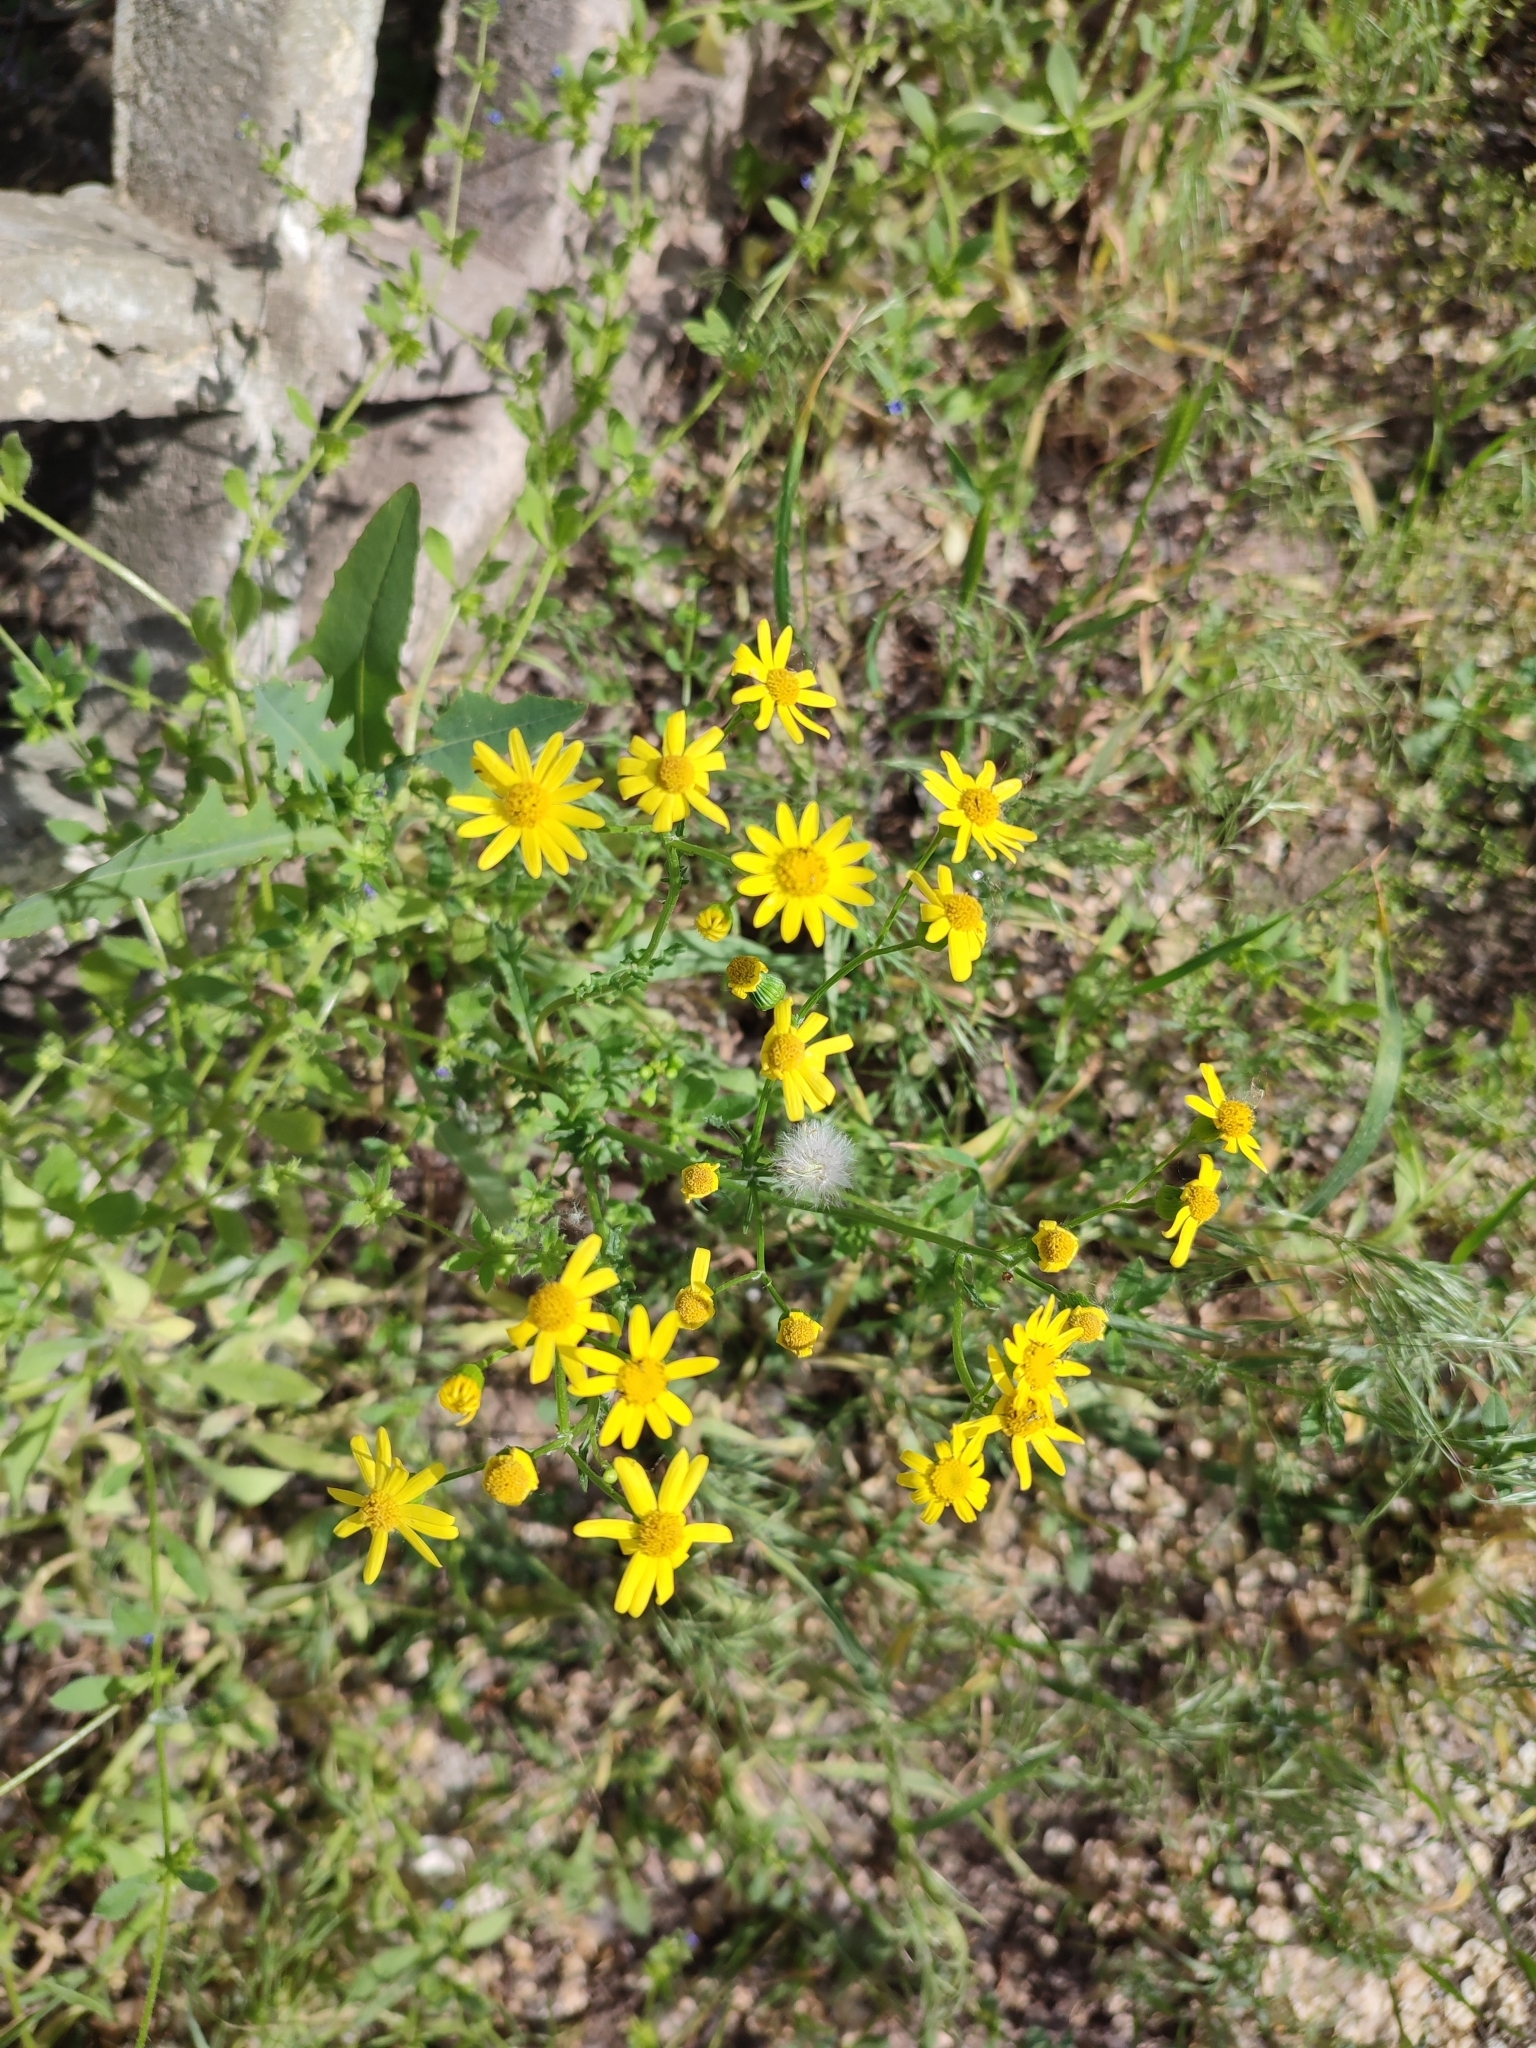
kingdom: Plantae
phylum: Tracheophyta
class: Magnoliopsida
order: Asterales
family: Asteraceae
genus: Senecio
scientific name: Senecio vernalis
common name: Eastern groundsel
